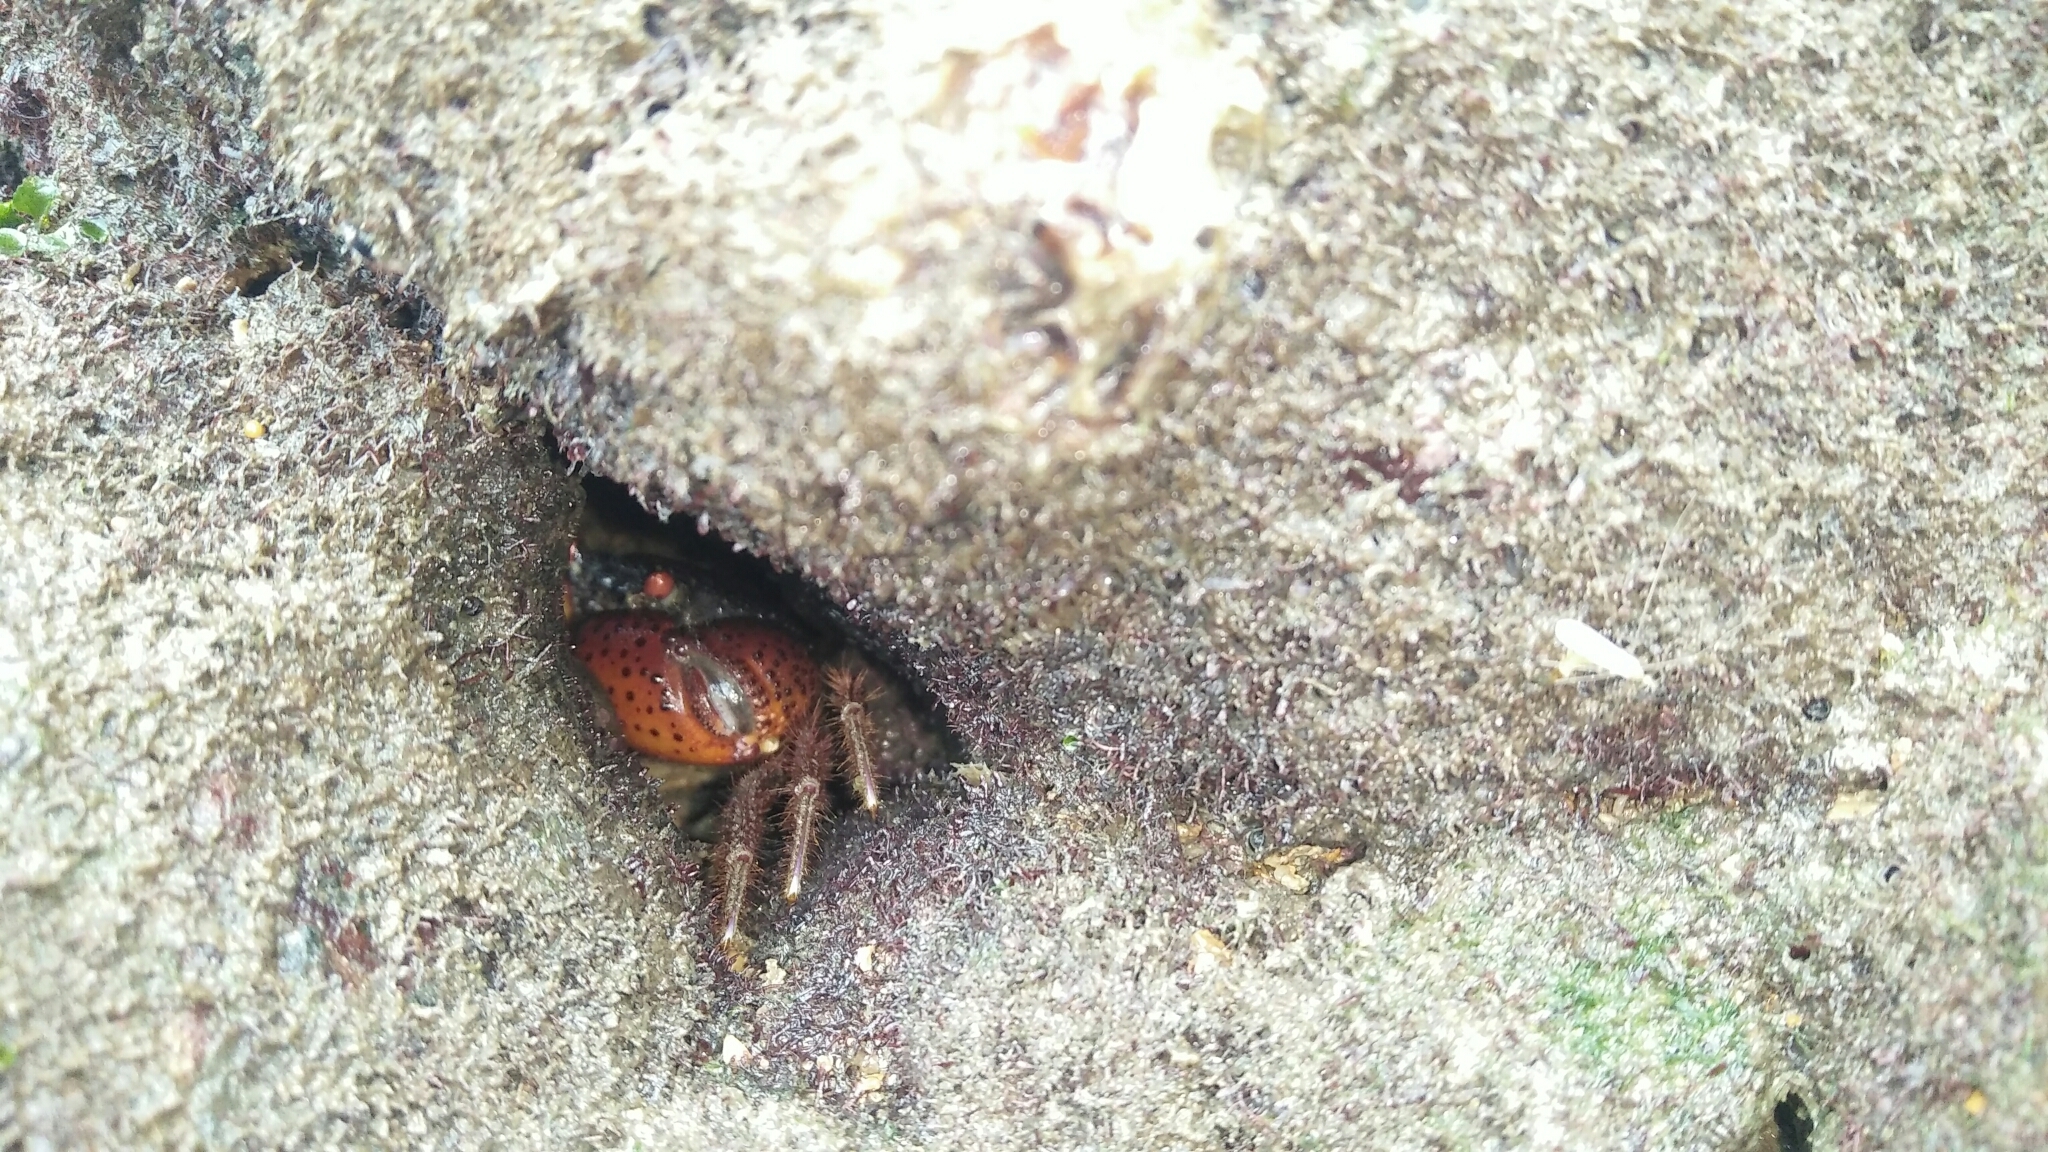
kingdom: Animalia
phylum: Arthropoda
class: Malacostraca
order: Decapoda
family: Eriphiidae
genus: Eriphia
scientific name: Eriphia ferox
